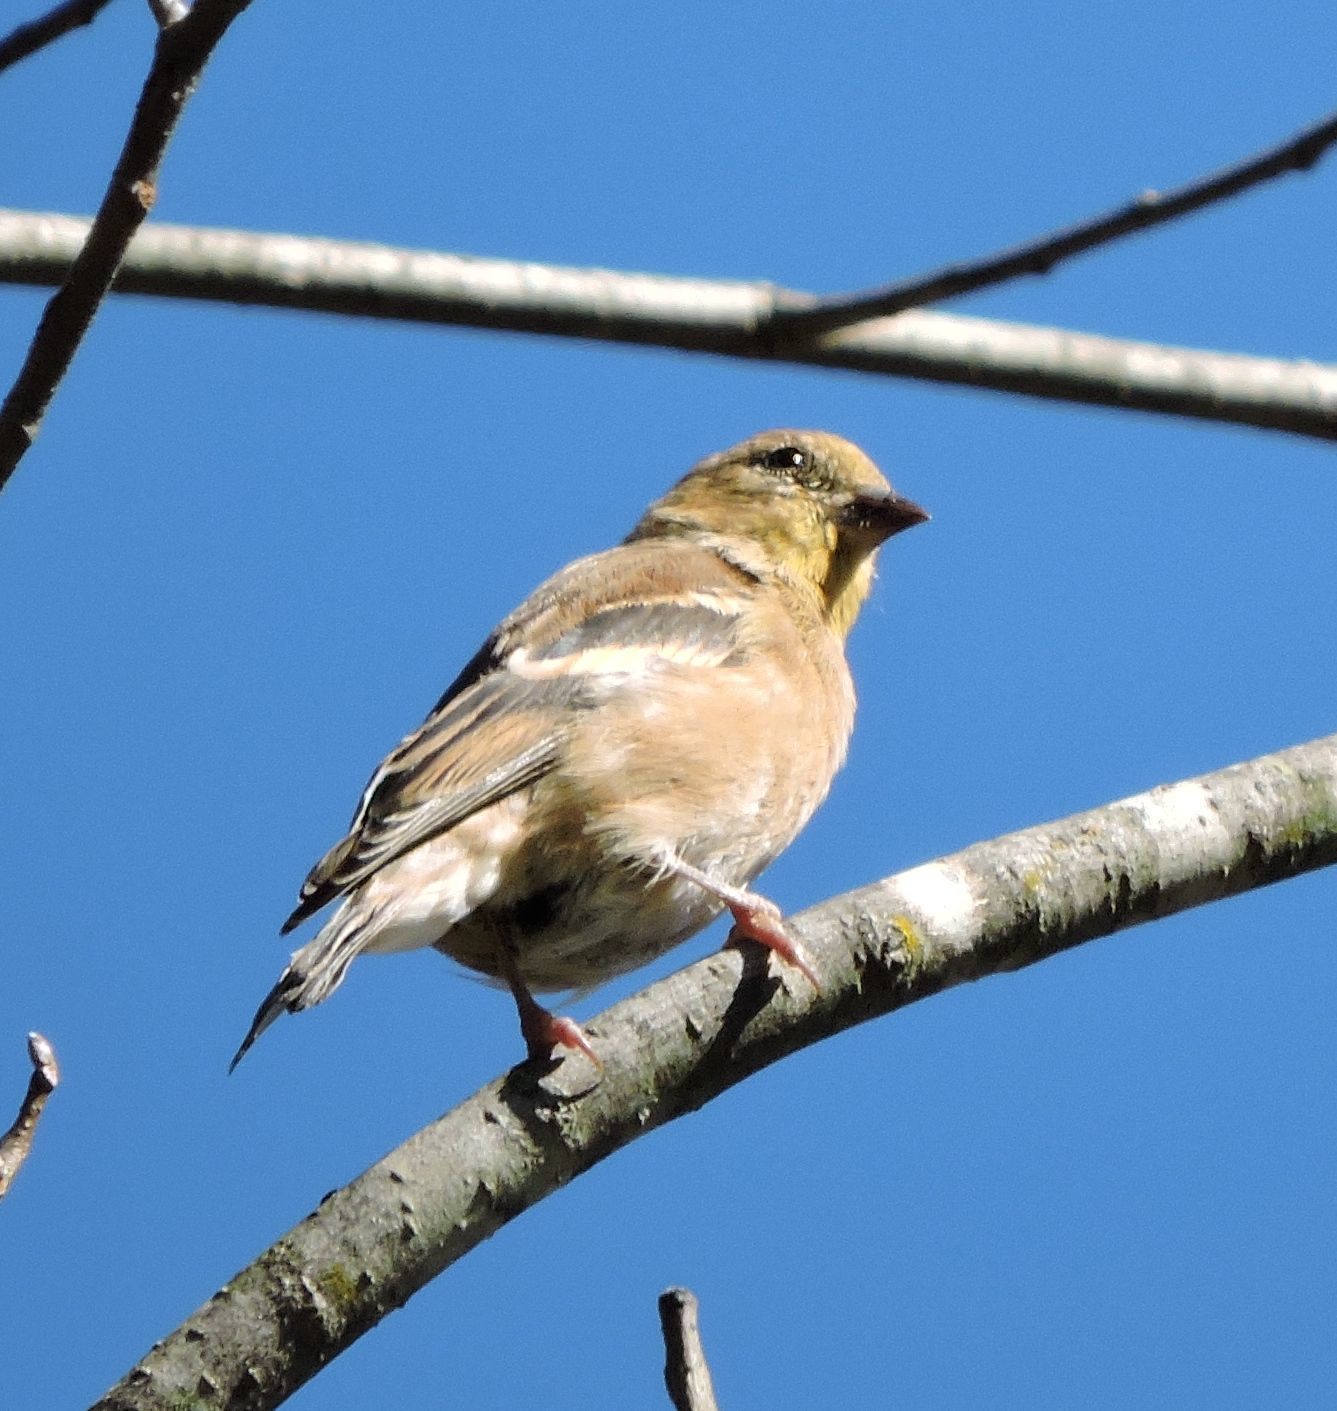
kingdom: Animalia
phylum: Chordata
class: Aves
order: Passeriformes
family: Fringillidae
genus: Spinus
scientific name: Spinus tristis
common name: American goldfinch
